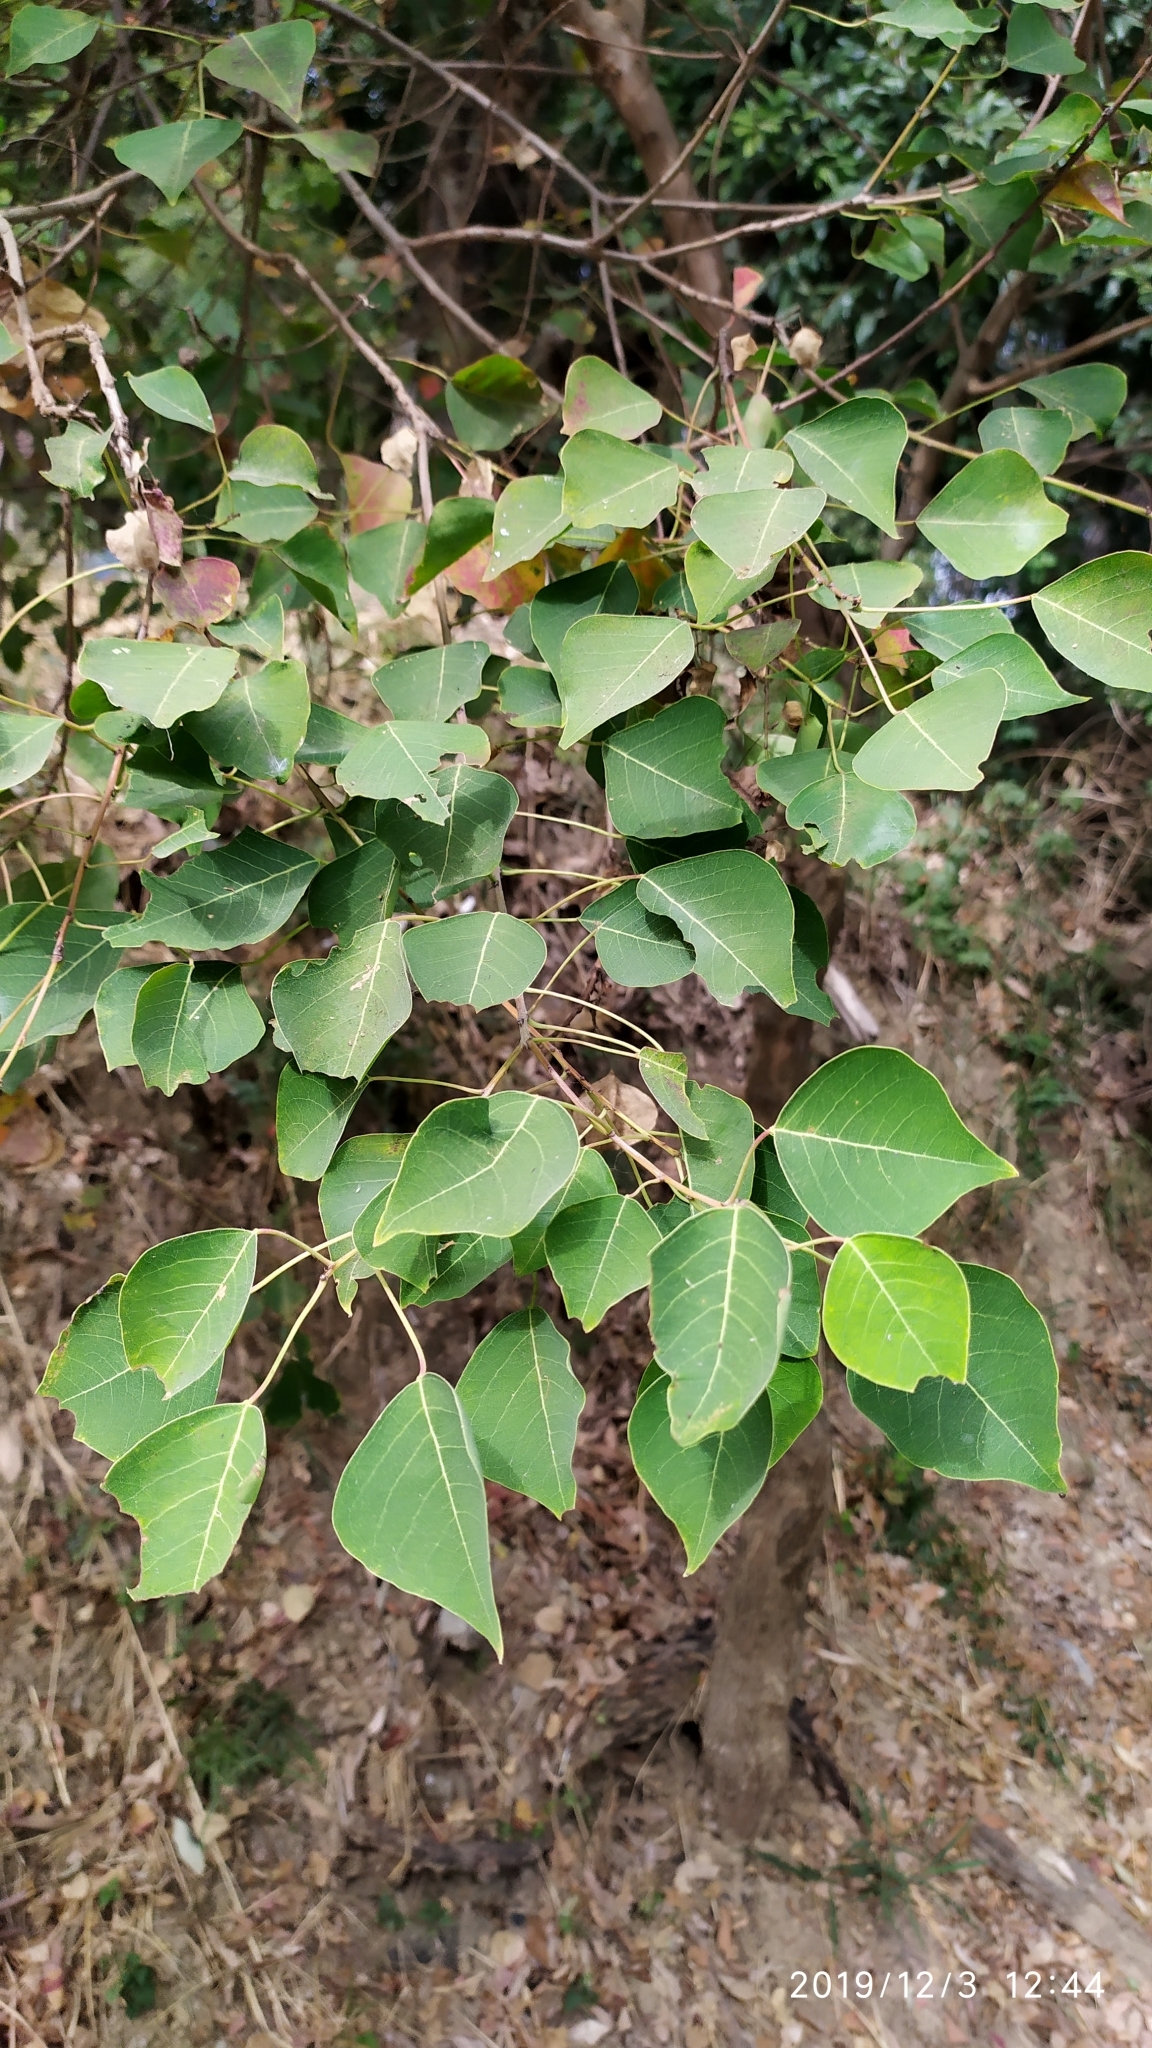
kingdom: Plantae
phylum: Tracheophyta
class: Magnoliopsida
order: Malpighiales
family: Euphorbiaceae
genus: Triadica
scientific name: Triadica sebifera
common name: Chinese tallow
